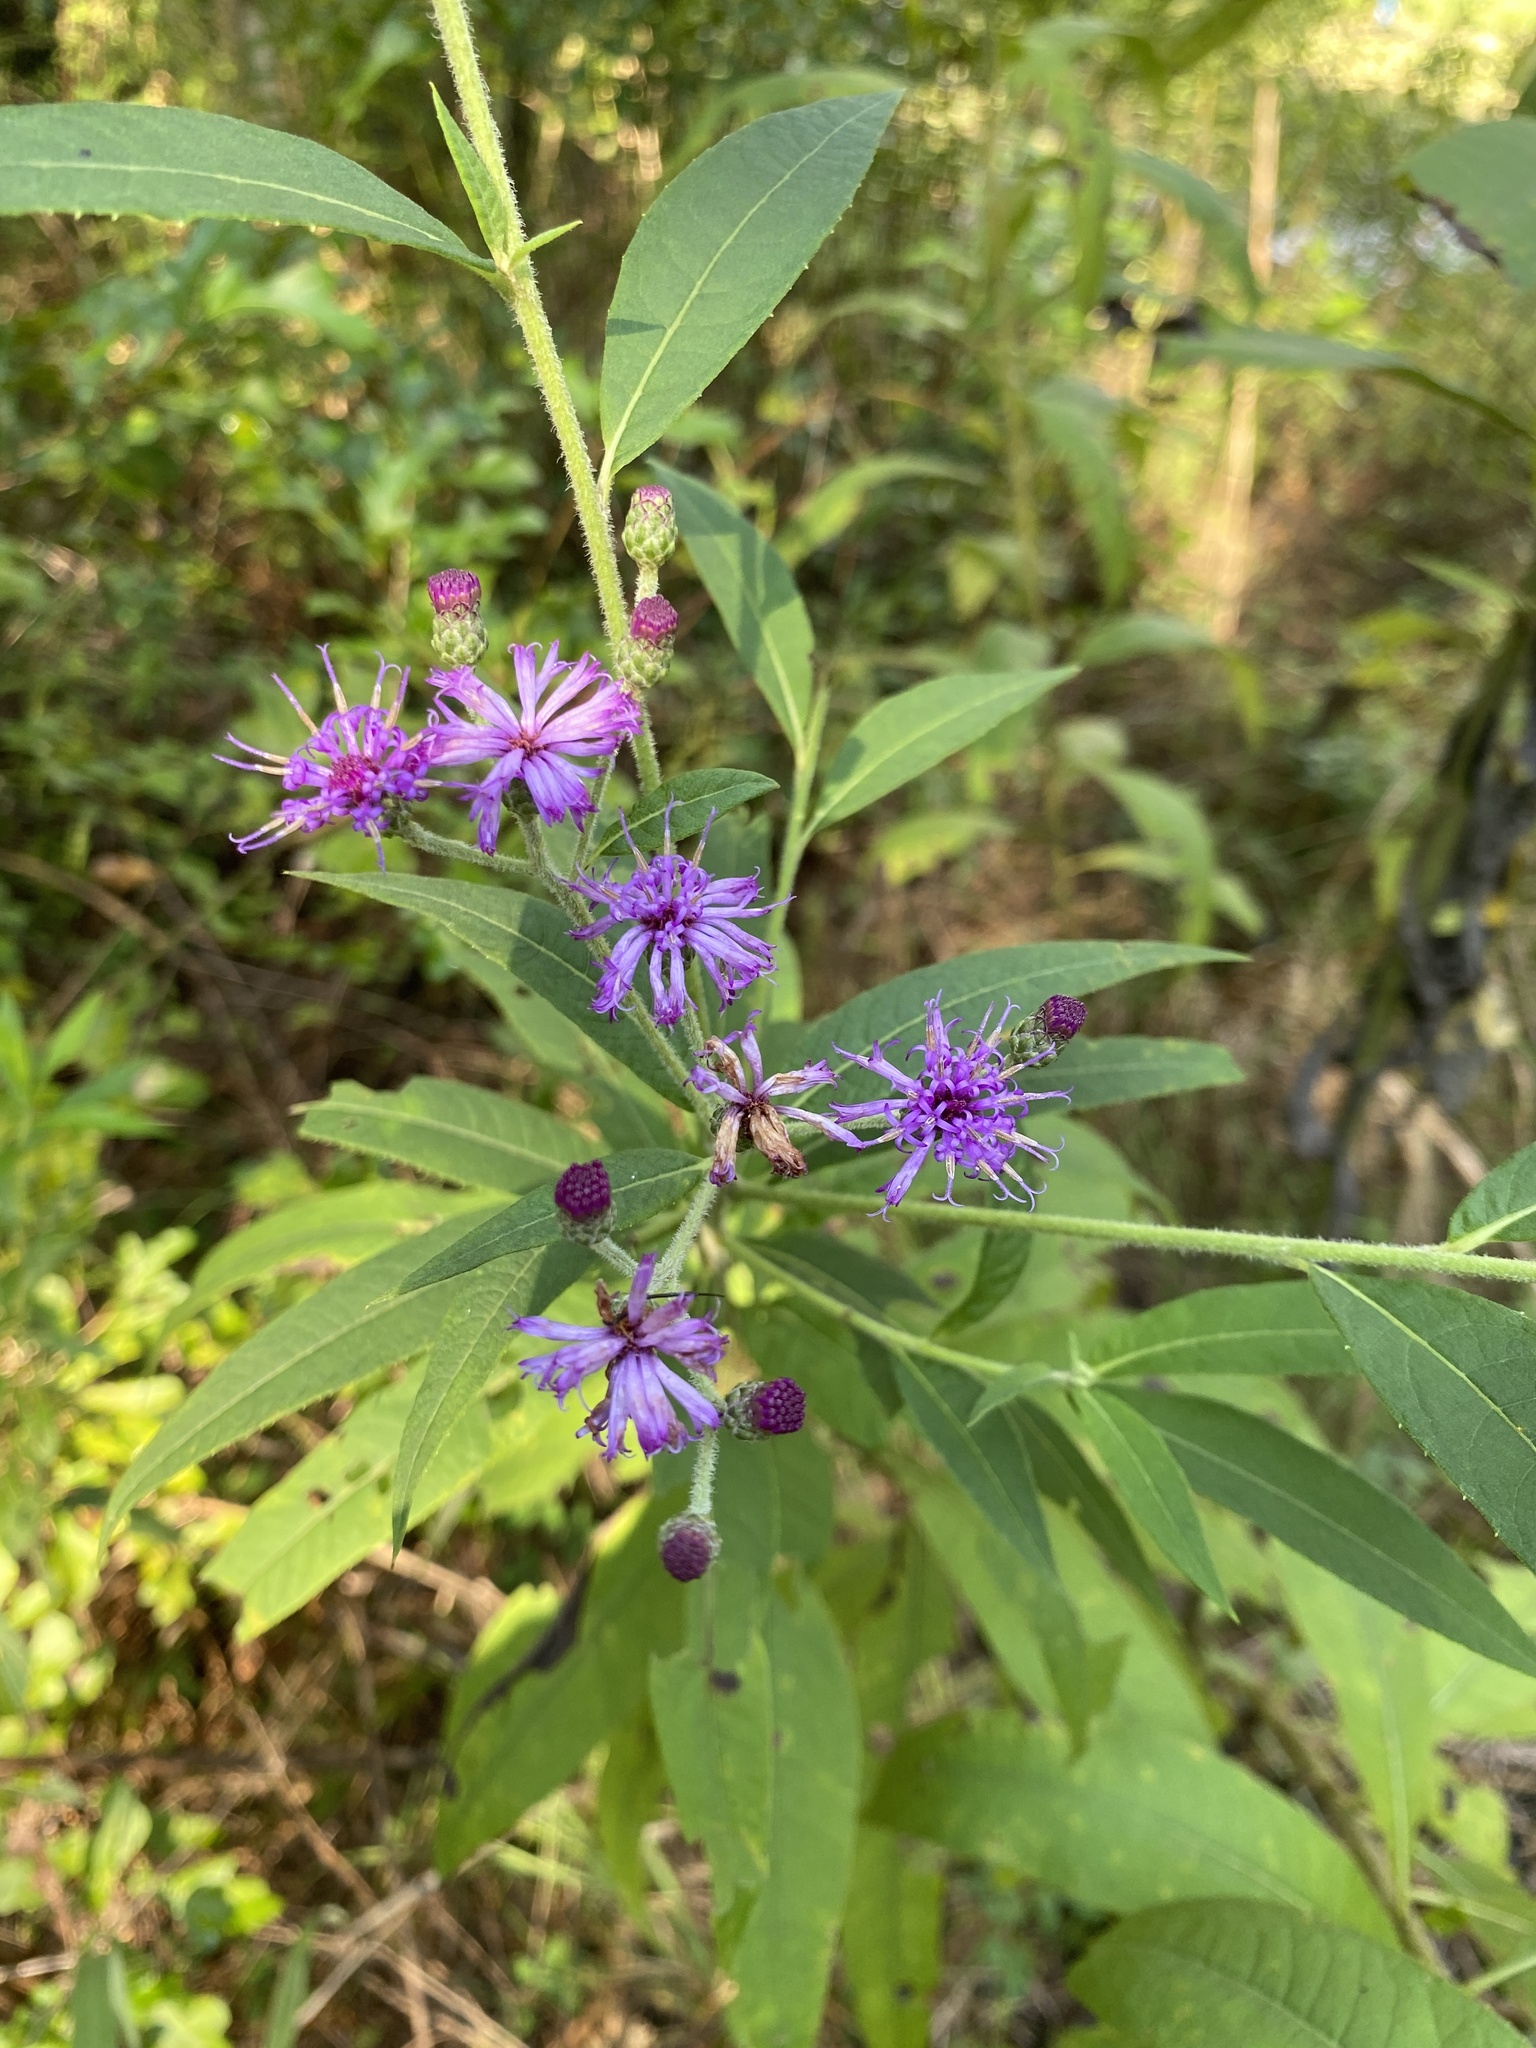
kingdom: Plantae
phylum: Tracheophyta
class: Magnoliopsida
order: Asterales
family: Asteraceae
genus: Vernonia
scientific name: Vernonia gigantea
